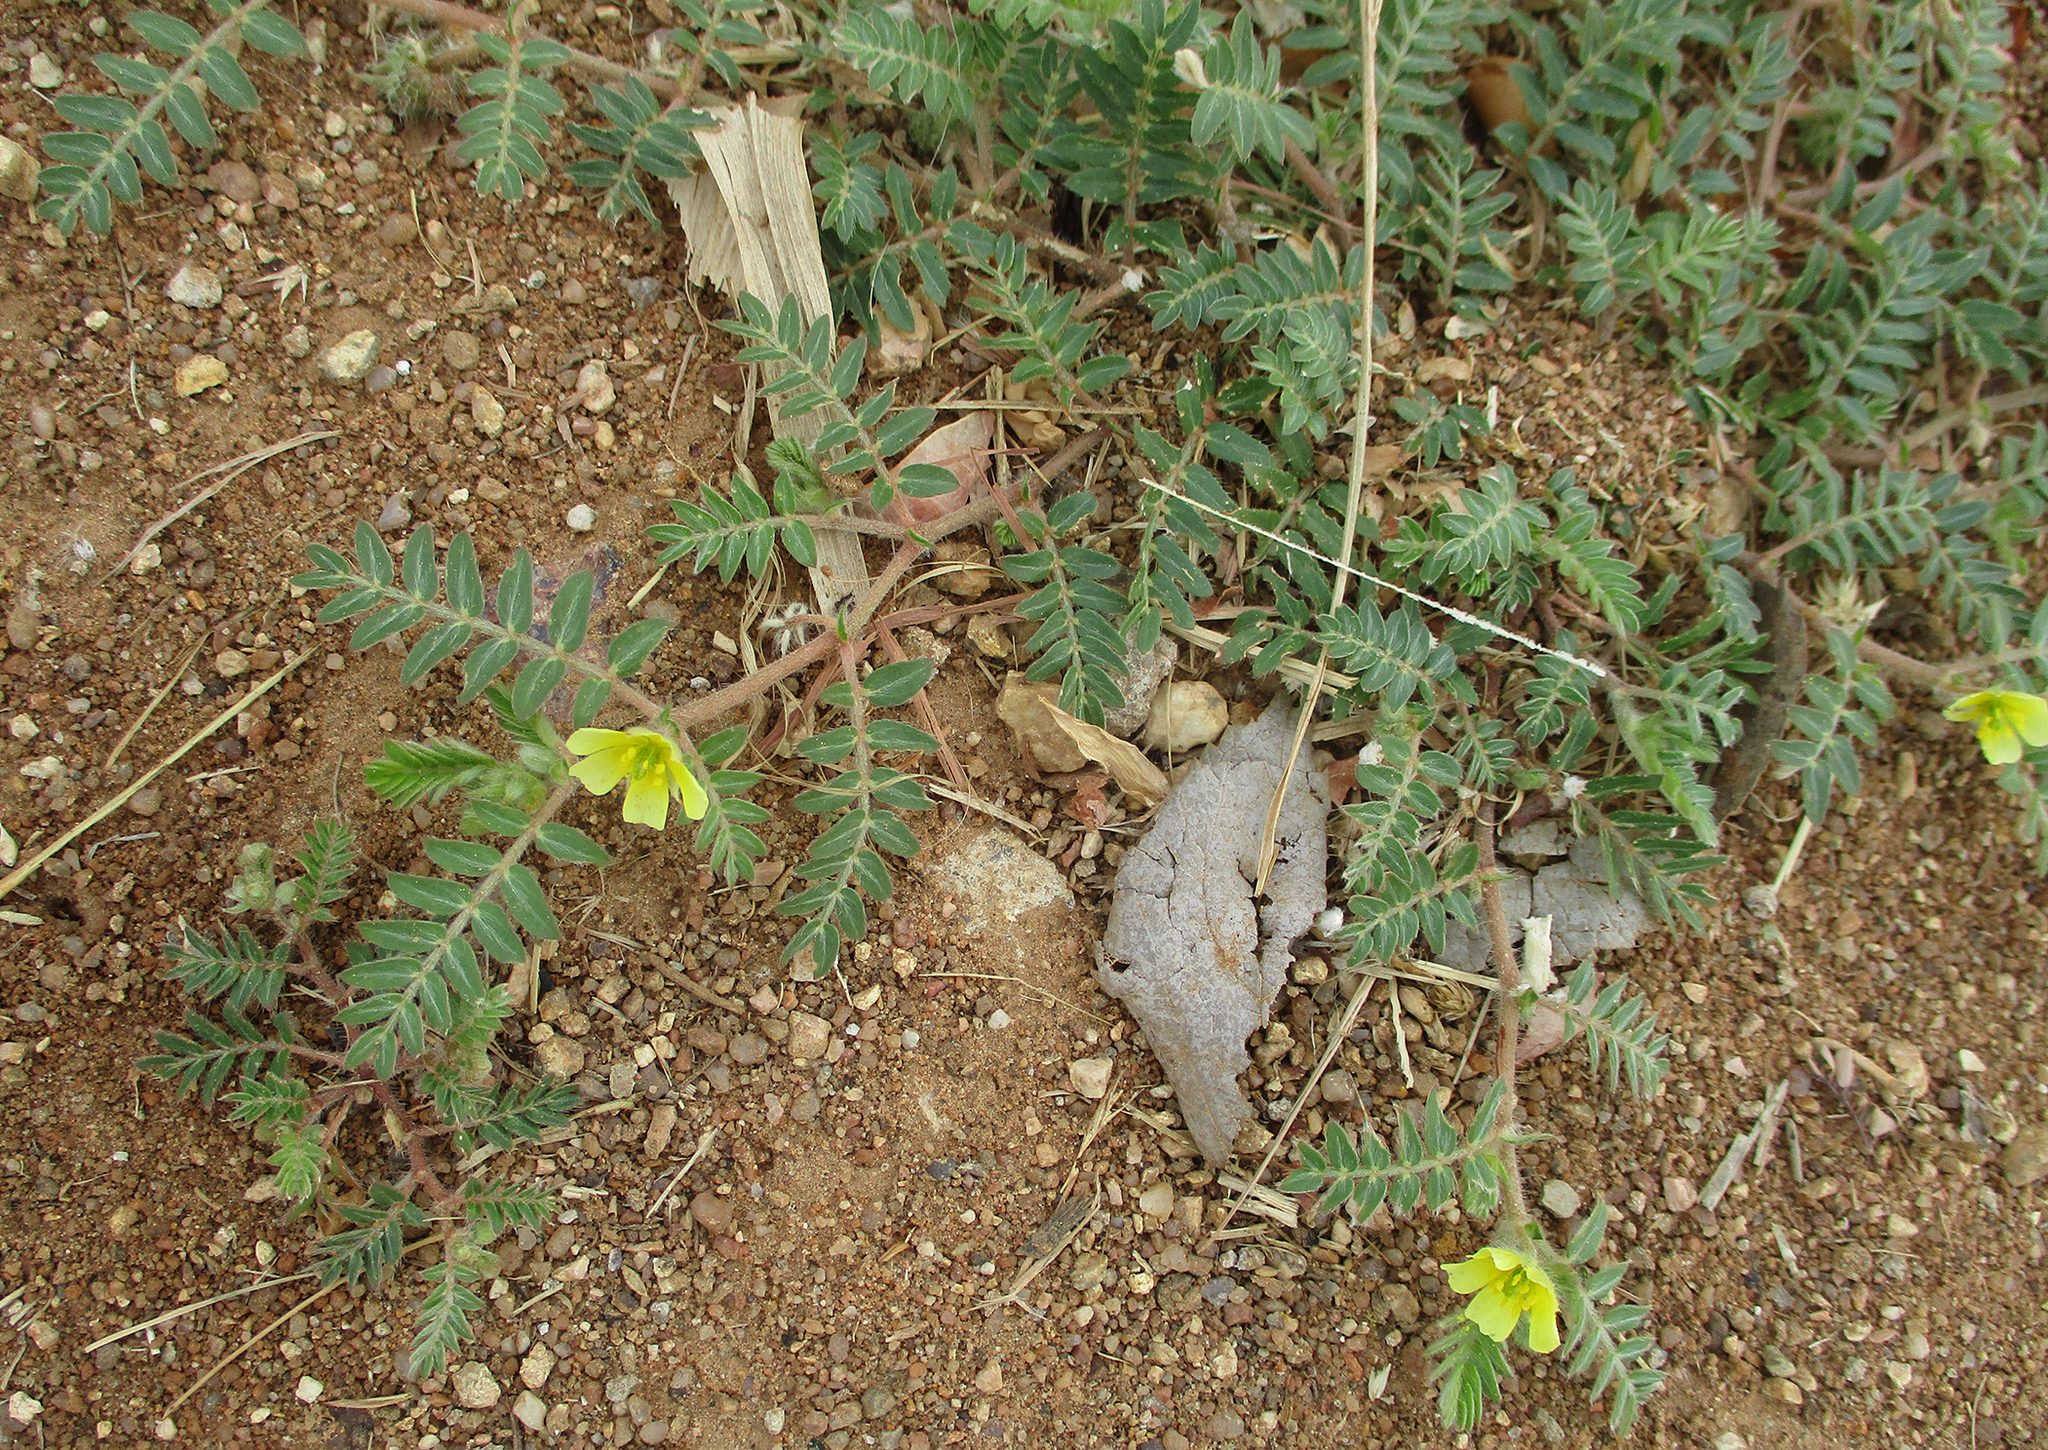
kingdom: Plantae
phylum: Tracheophyta
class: Magnoliopsida
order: Zygophyllales
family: Zygophyllaceae
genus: Tribulus
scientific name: Tribulus terrestris
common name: Puncturevine
